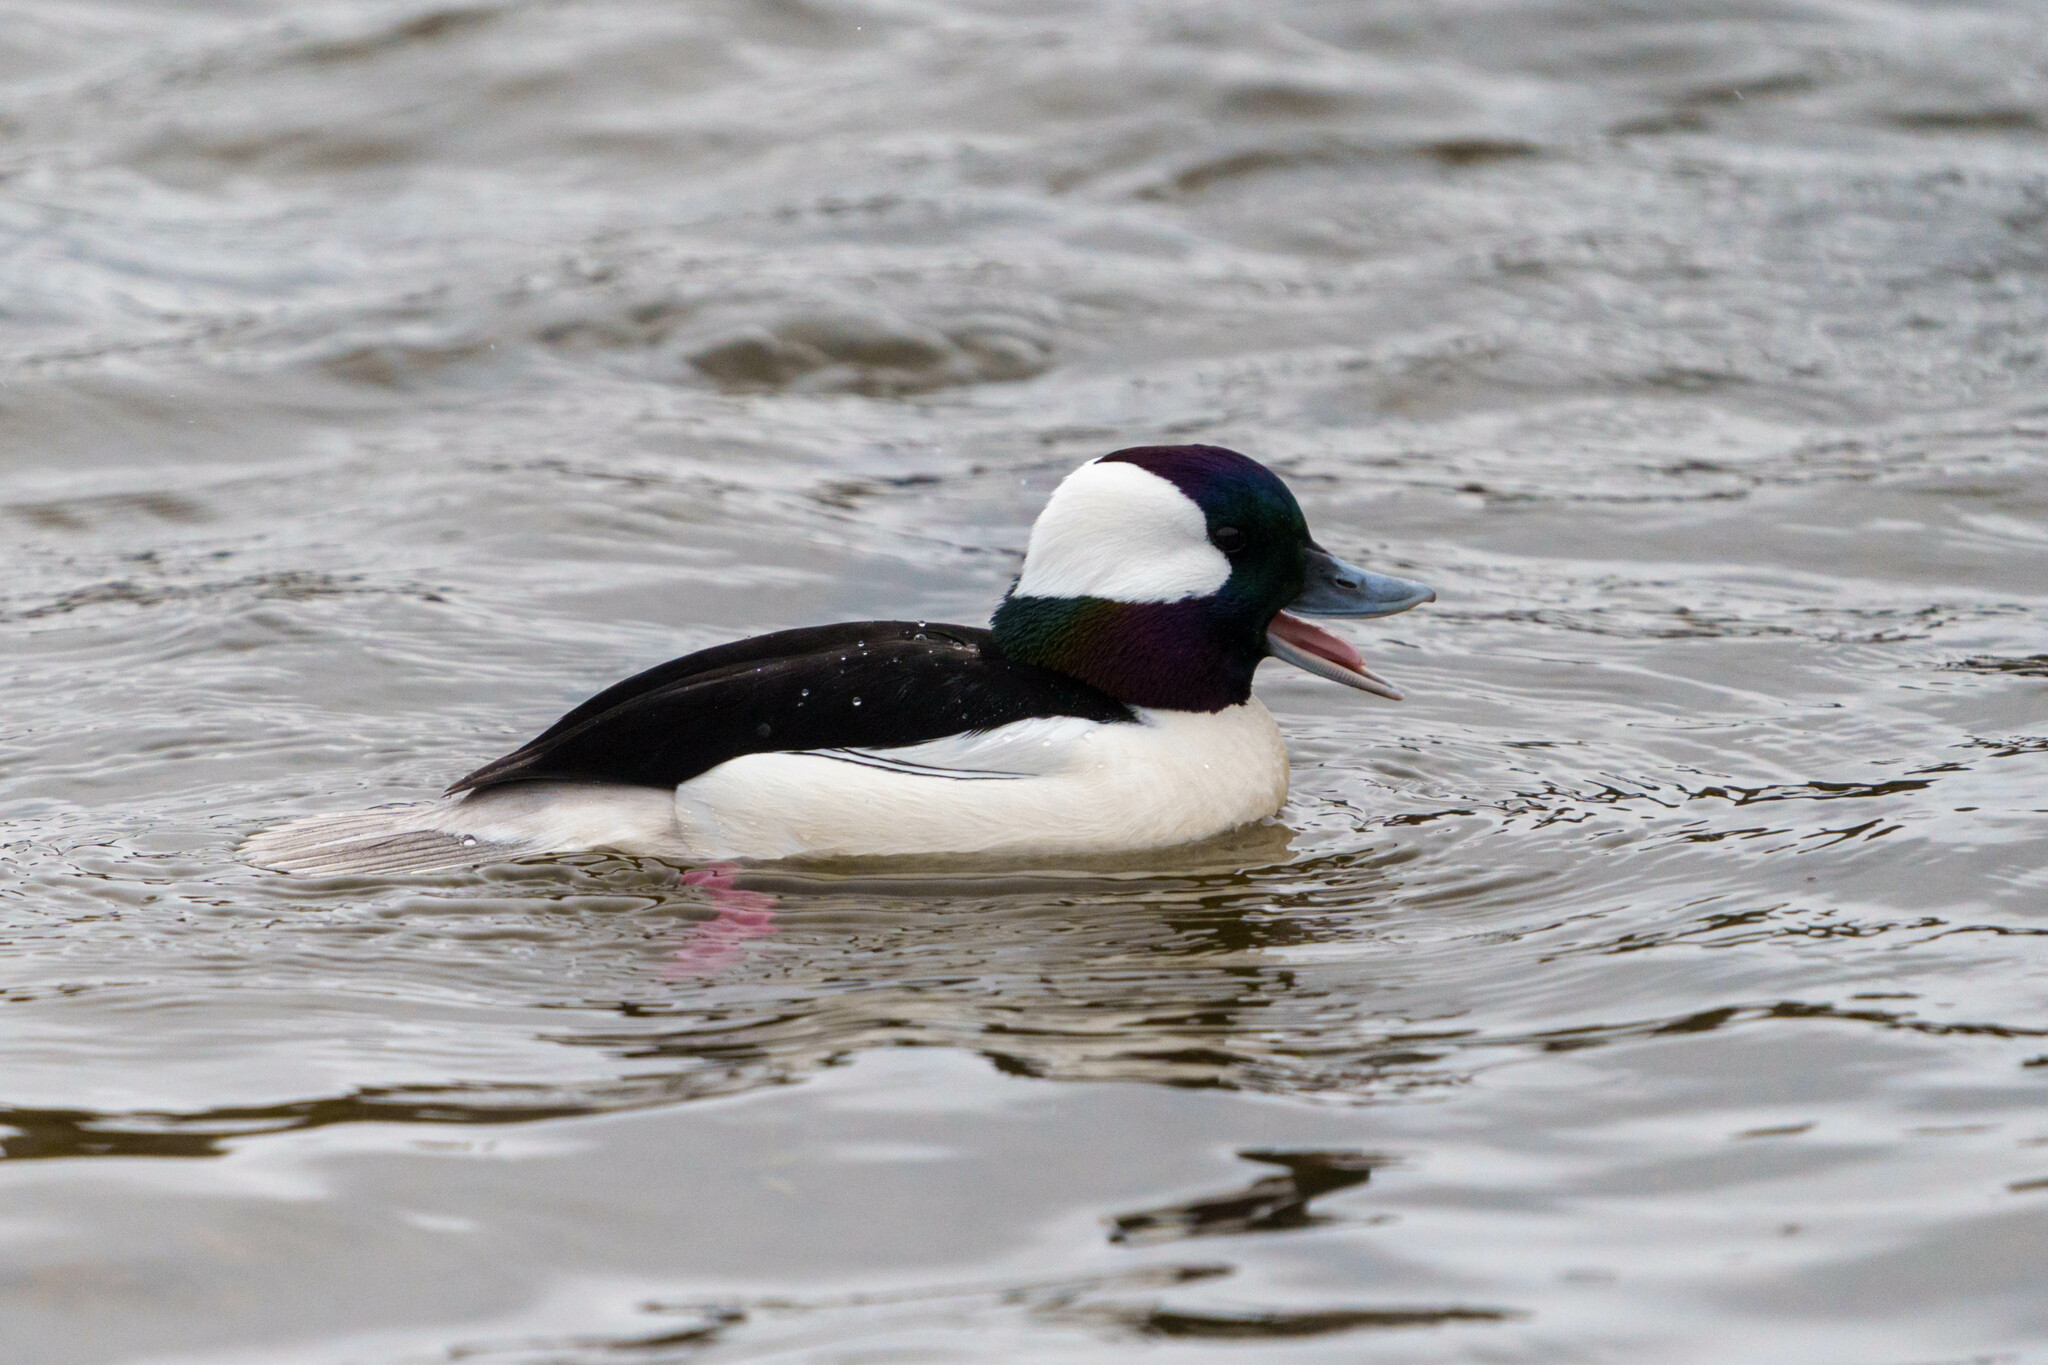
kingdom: Animalia
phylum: Chordata
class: Aves
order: Anseriformes
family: Anatidae
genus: Bucephala
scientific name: Bucephala albeola
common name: Bufflehead
